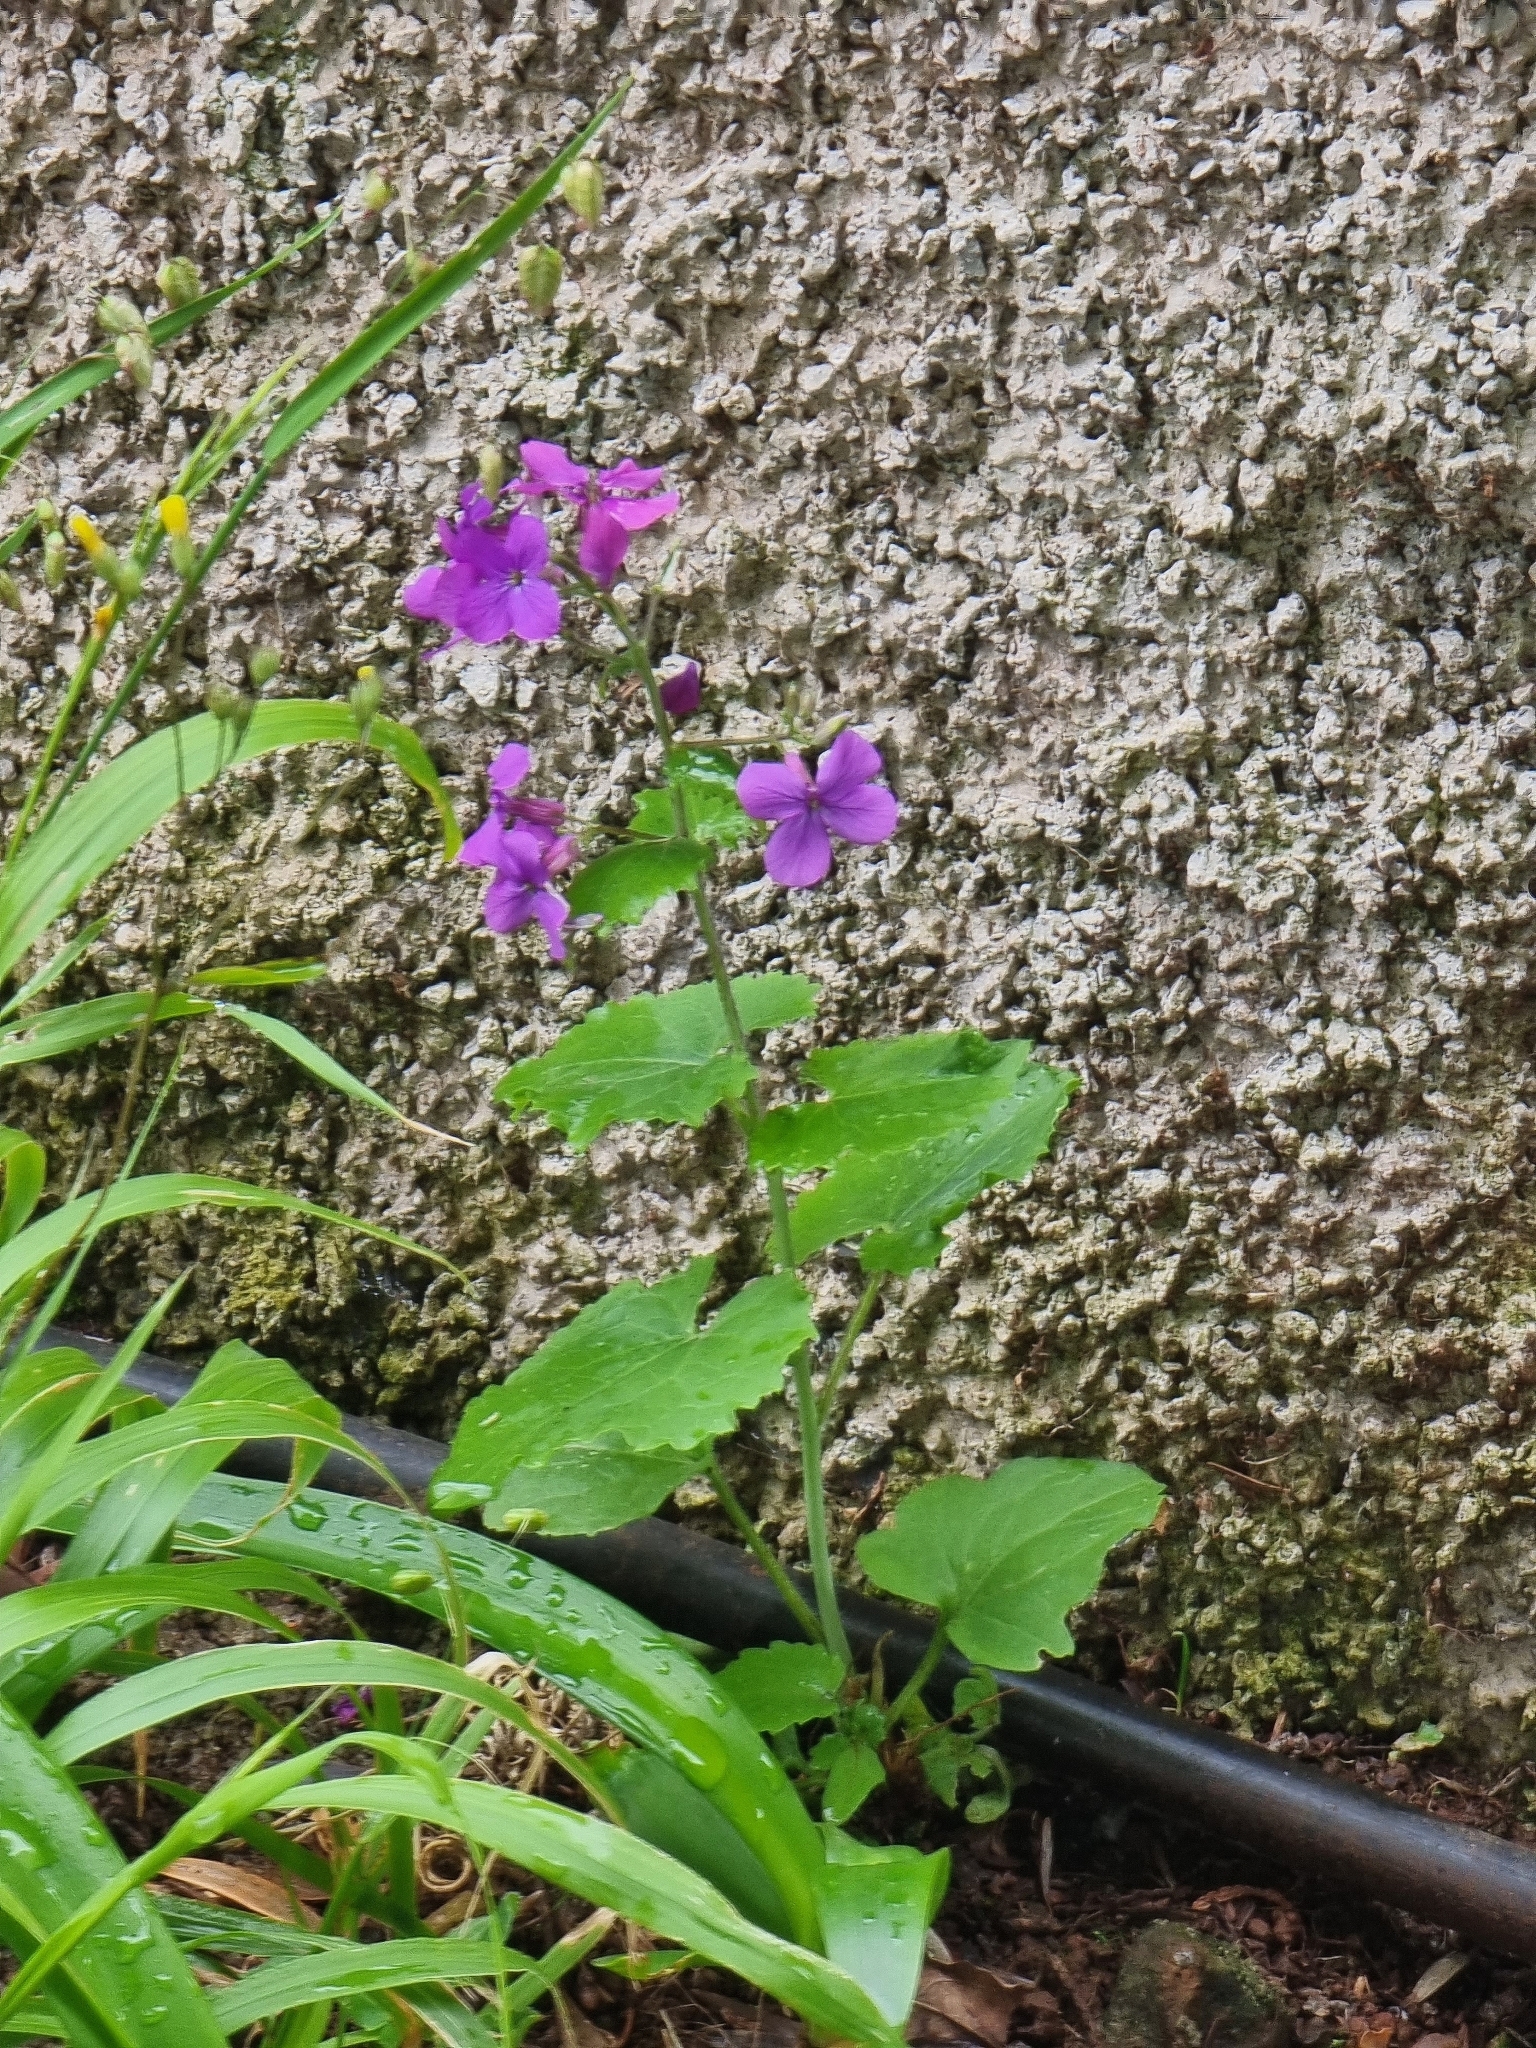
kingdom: Plantae
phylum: Tracheophyta
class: Magnoliopsida
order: Brassicales
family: Brassicaceae
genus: Lunaria
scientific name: Lunaria annua
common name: Honesty
